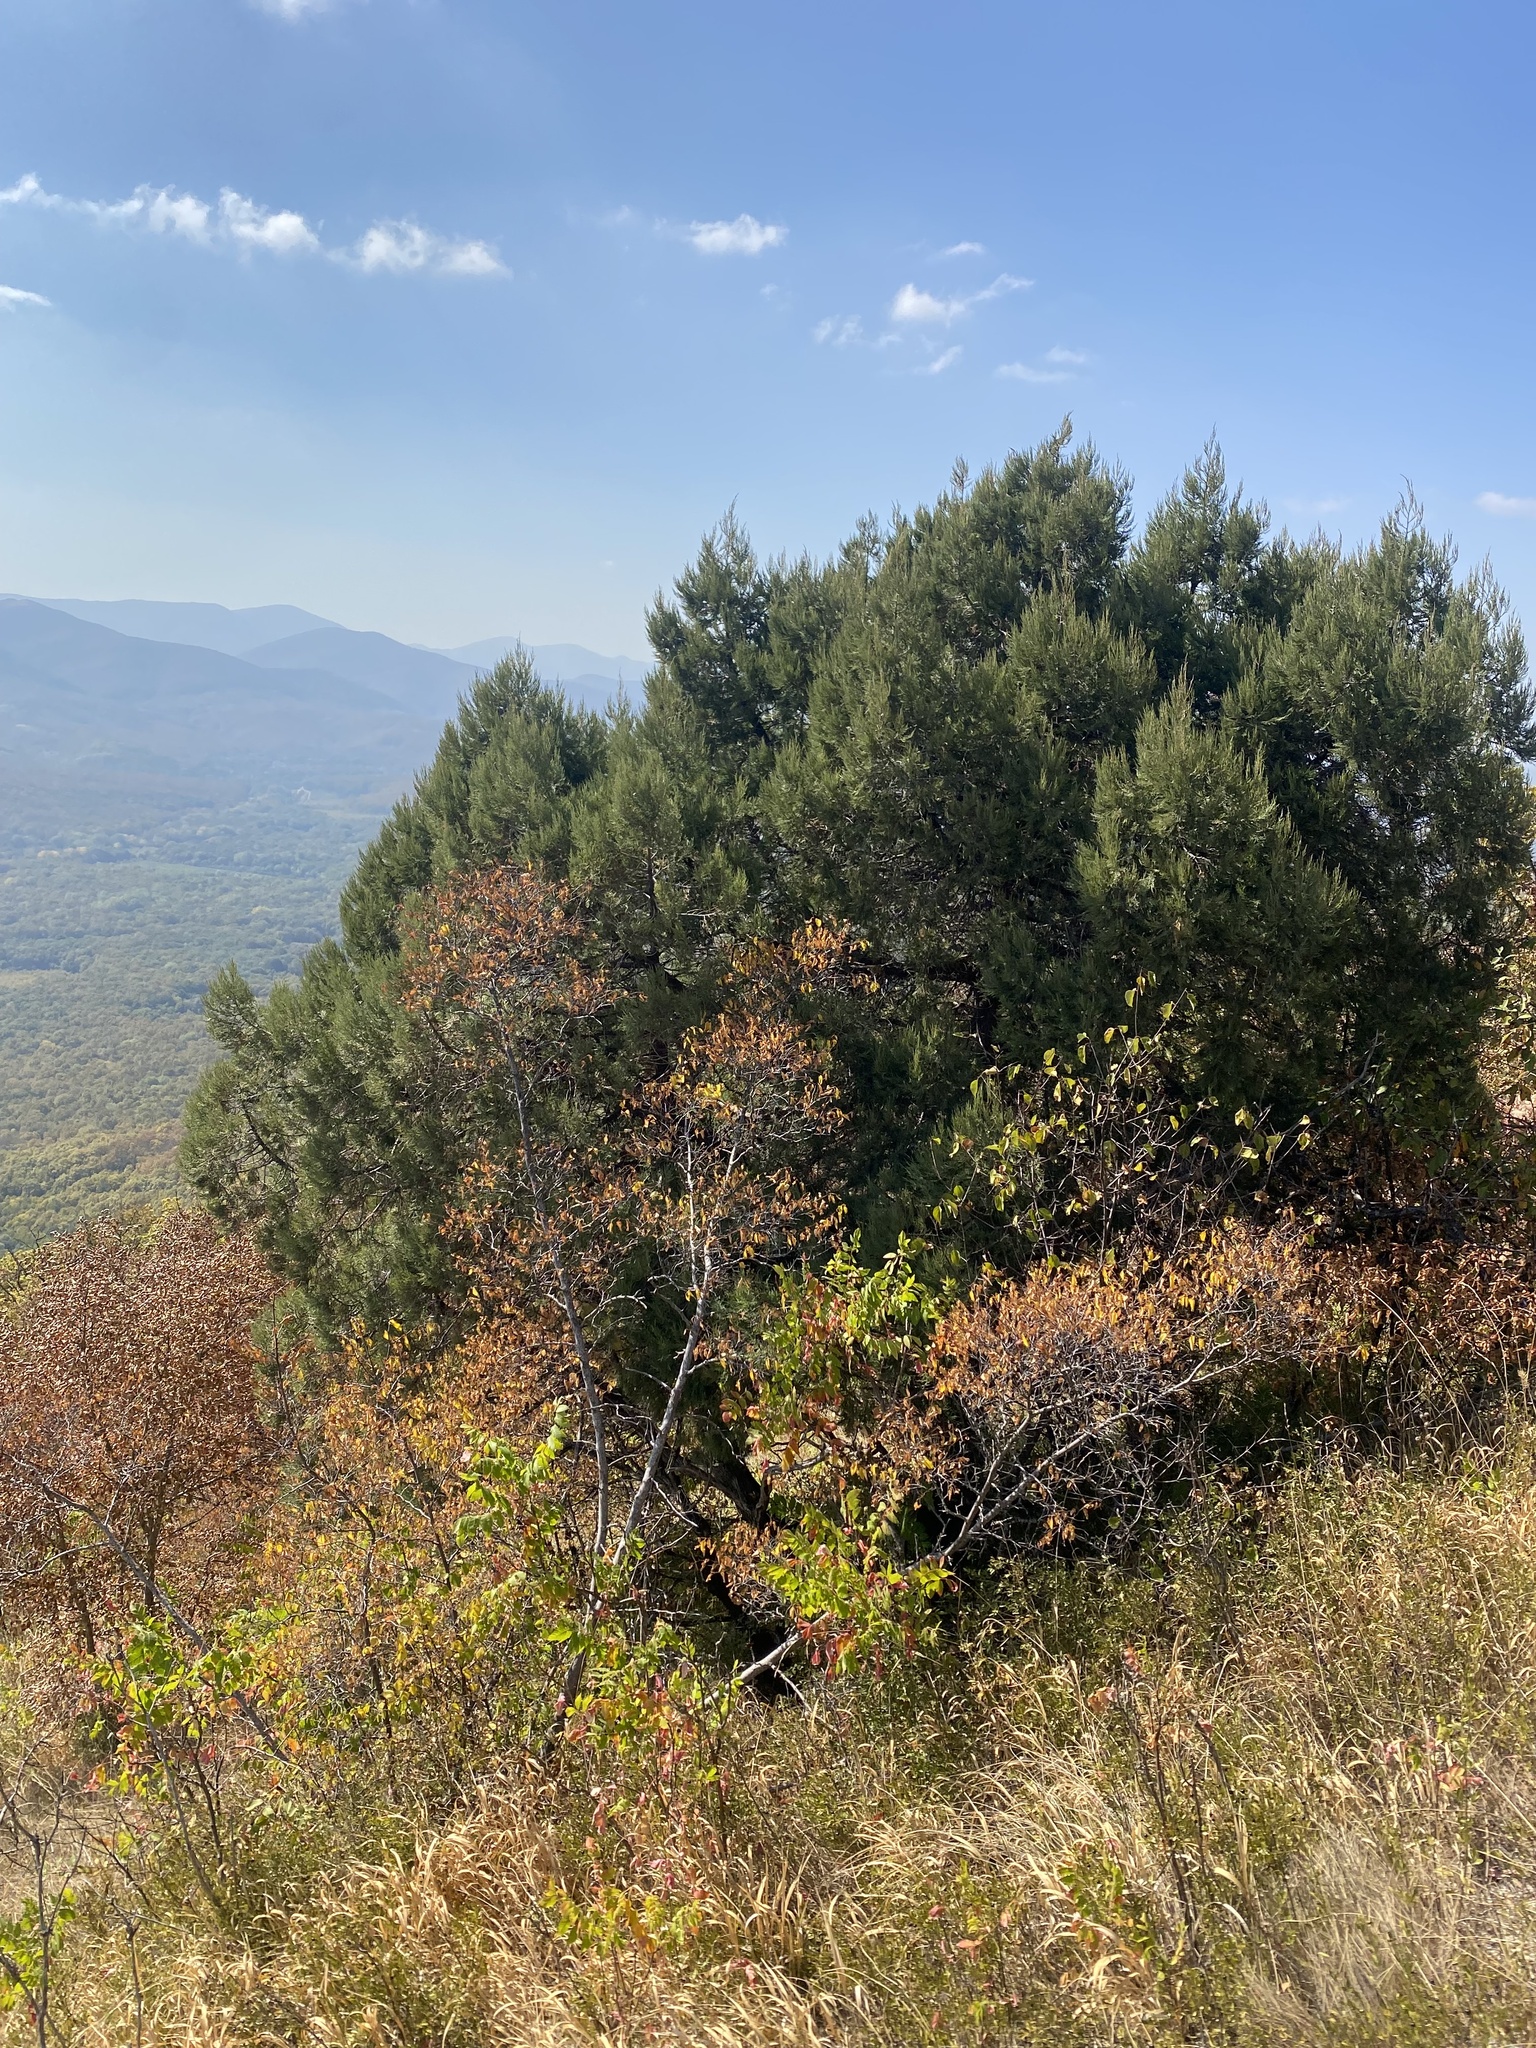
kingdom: Plantae
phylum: Tracheophyta
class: Pinopsida
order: Pinales
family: Cupressaceae
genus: Juniperus
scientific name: Juniperus excelsa
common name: Crimean juniper
